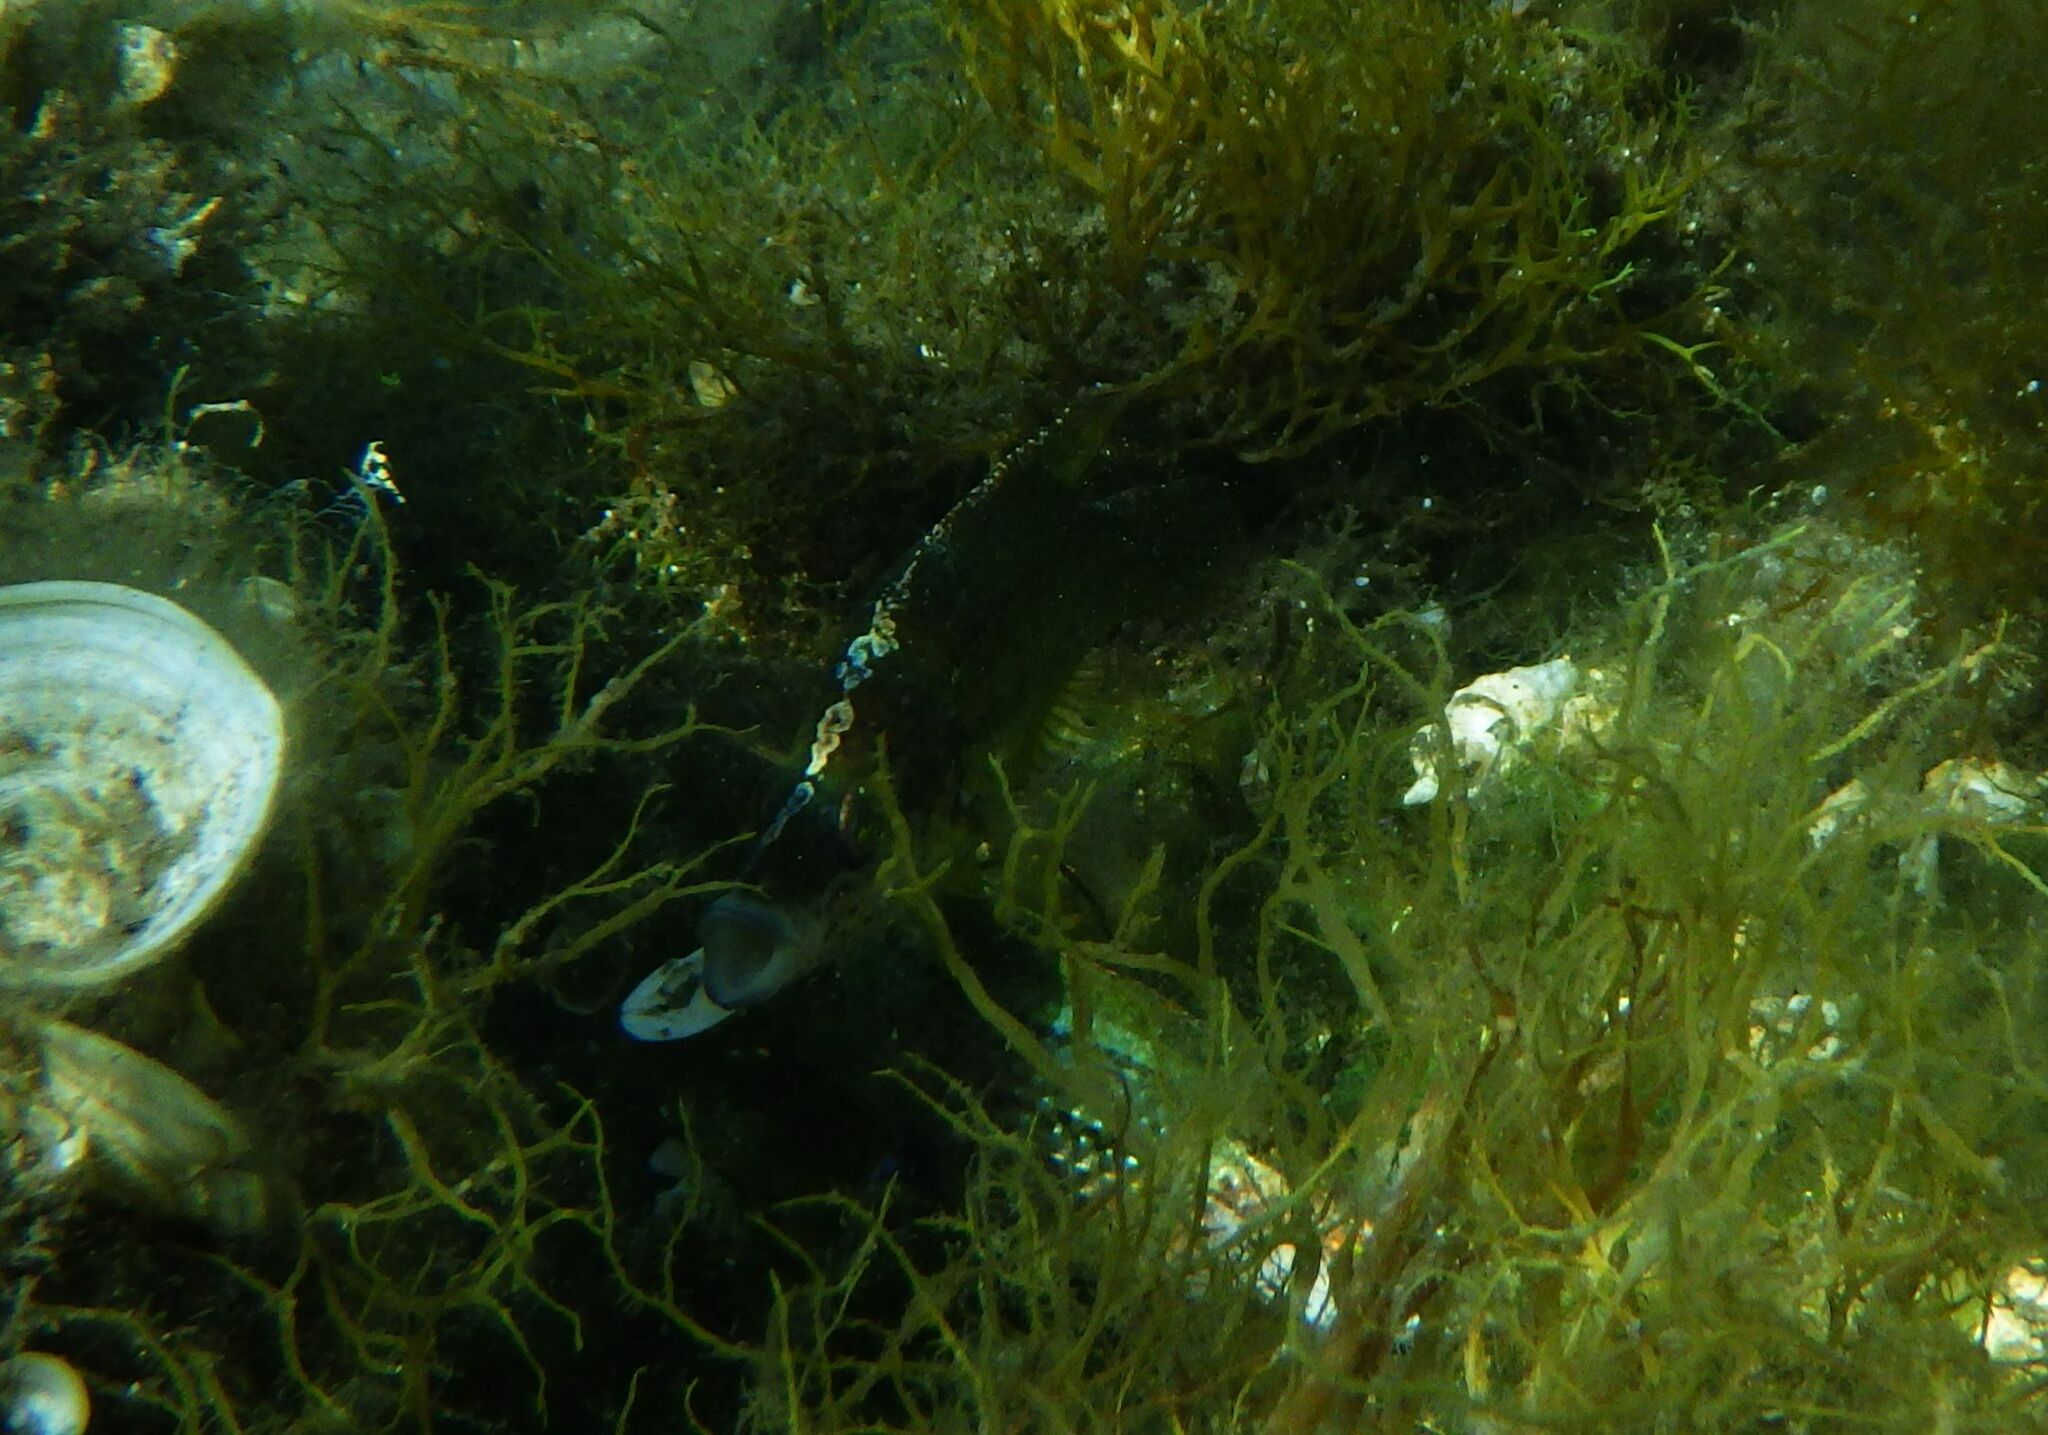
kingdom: Animalia
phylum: Chordata
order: Perciformes
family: Labridae
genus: Symphodus
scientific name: Symphodus rostratus
